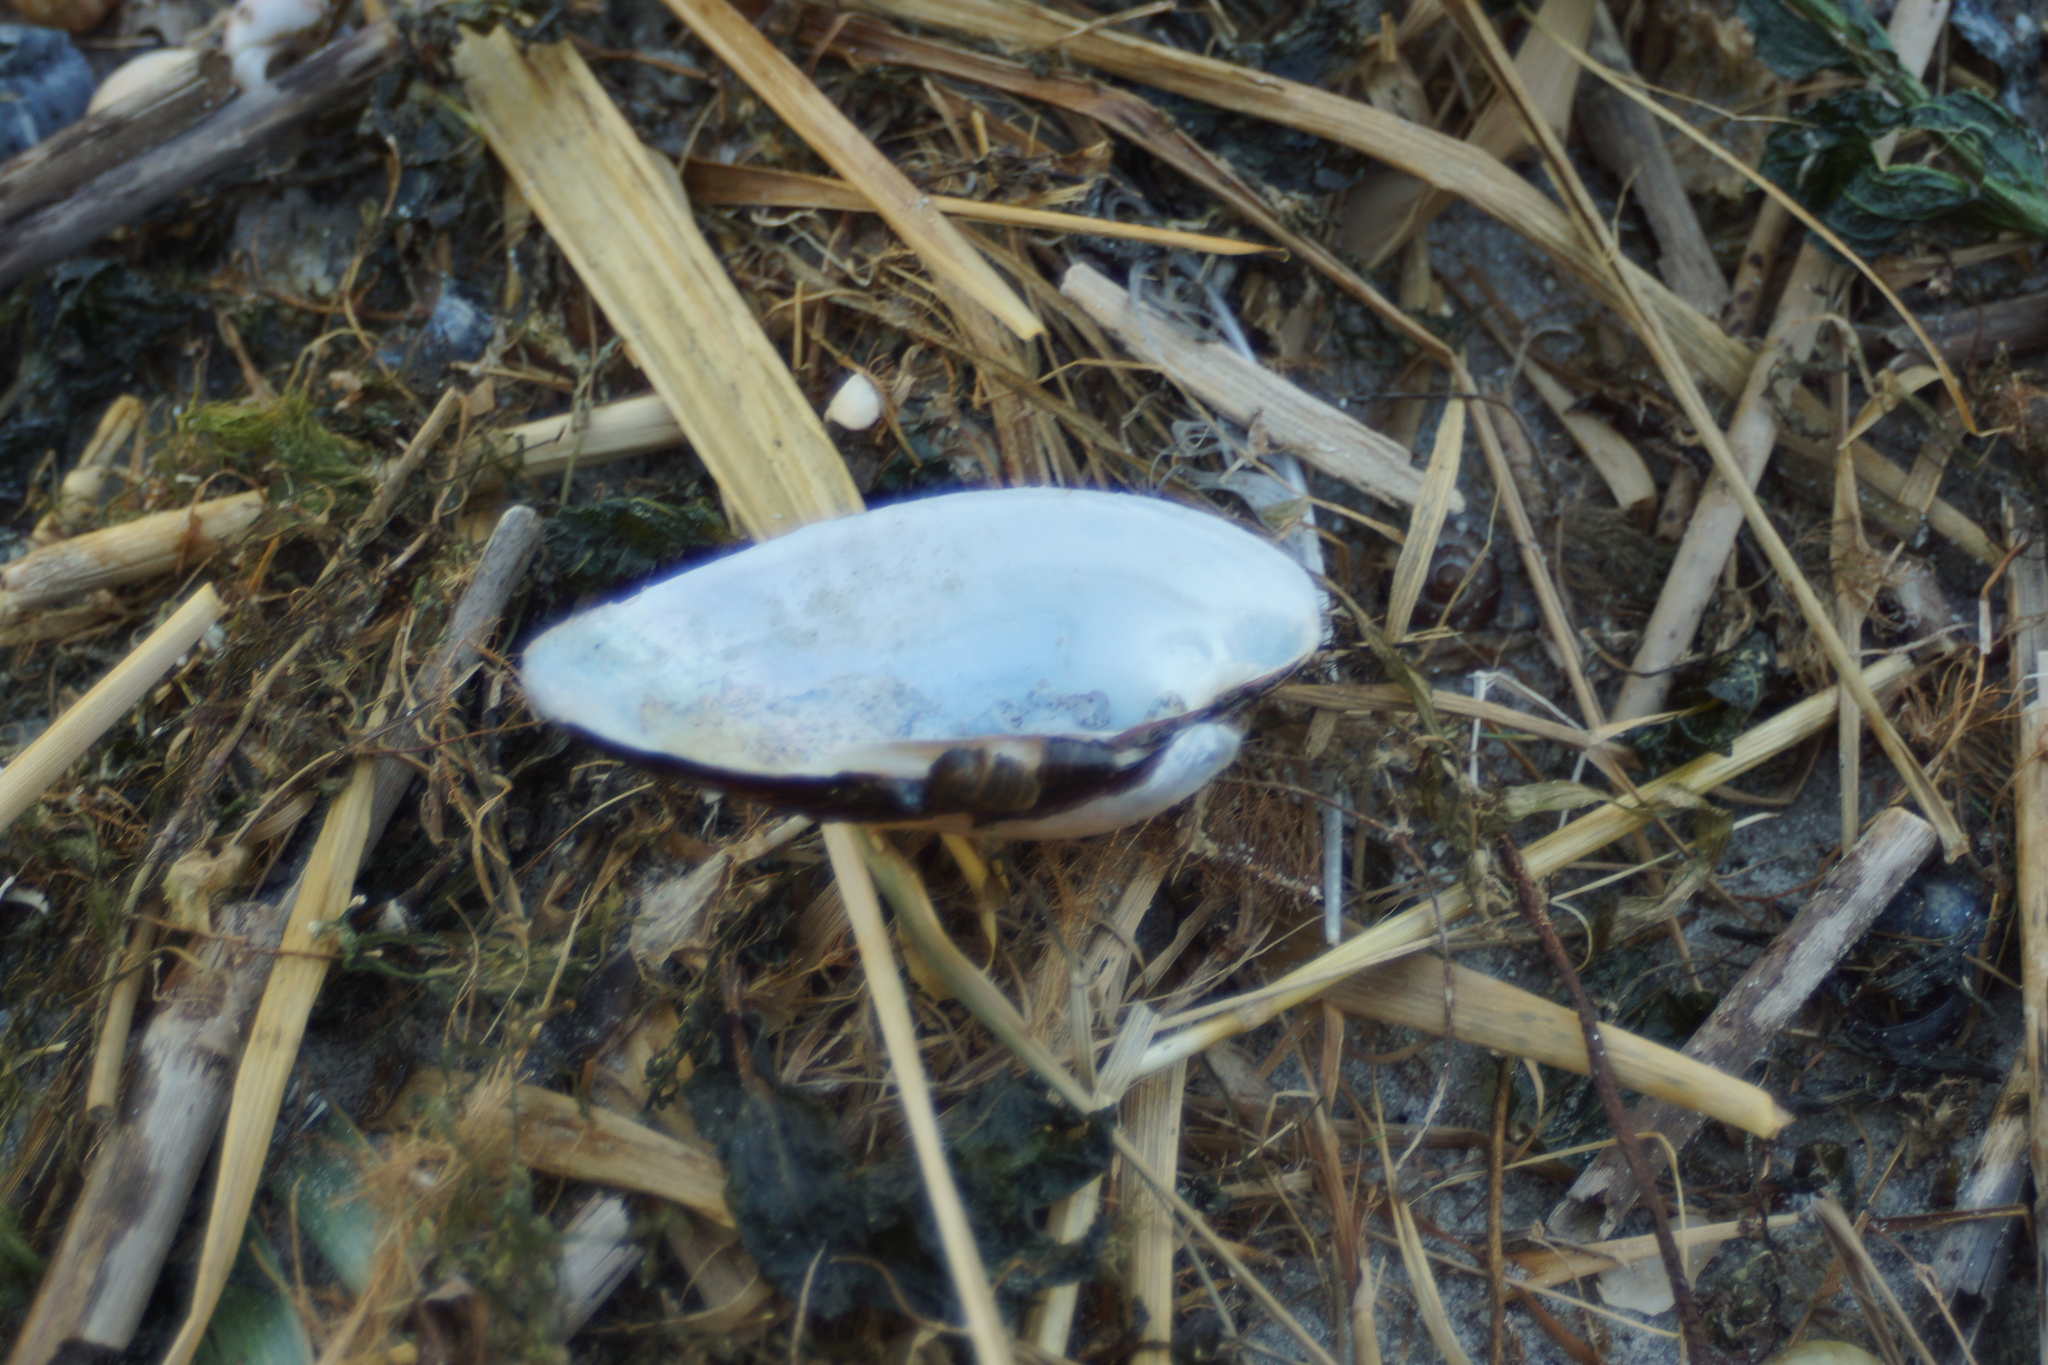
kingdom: Animalia
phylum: Mollusca
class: Bivalvia
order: Unionida
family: Unionidae
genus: Unio
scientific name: Unio tumidus
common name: Swollen river mussel
